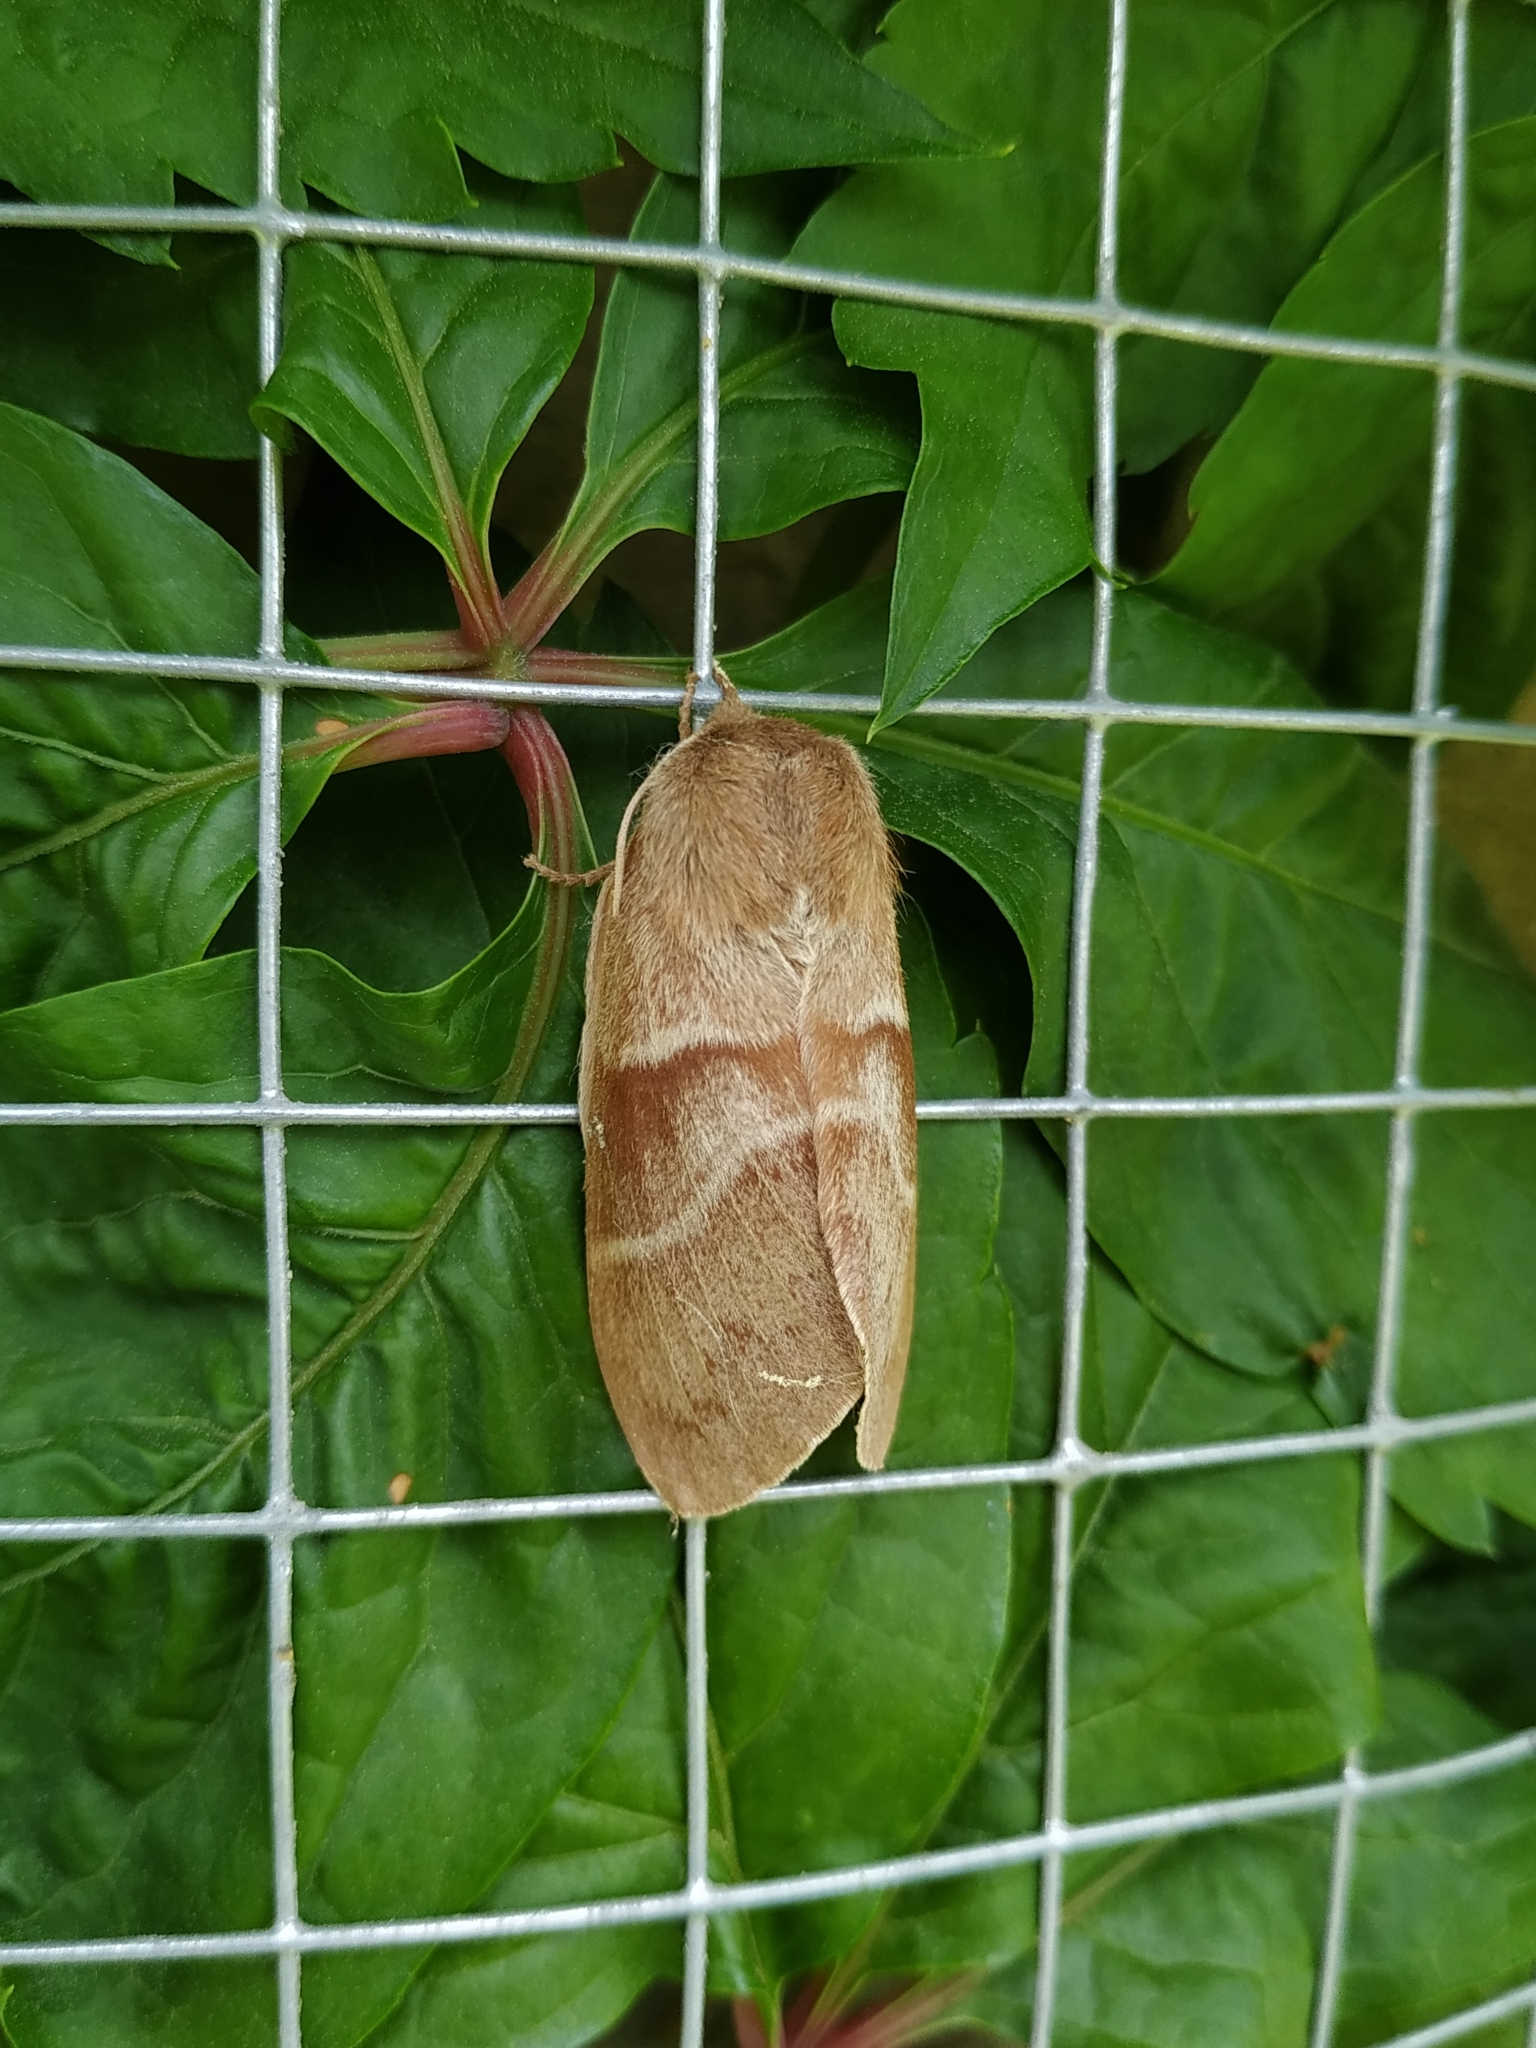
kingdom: Animalia
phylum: Arthropoda
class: Insecta
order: Lepidoptera
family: Lasiocampidae
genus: Macrothylacia
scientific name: Macrothylacia rubi
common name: Fox moth
